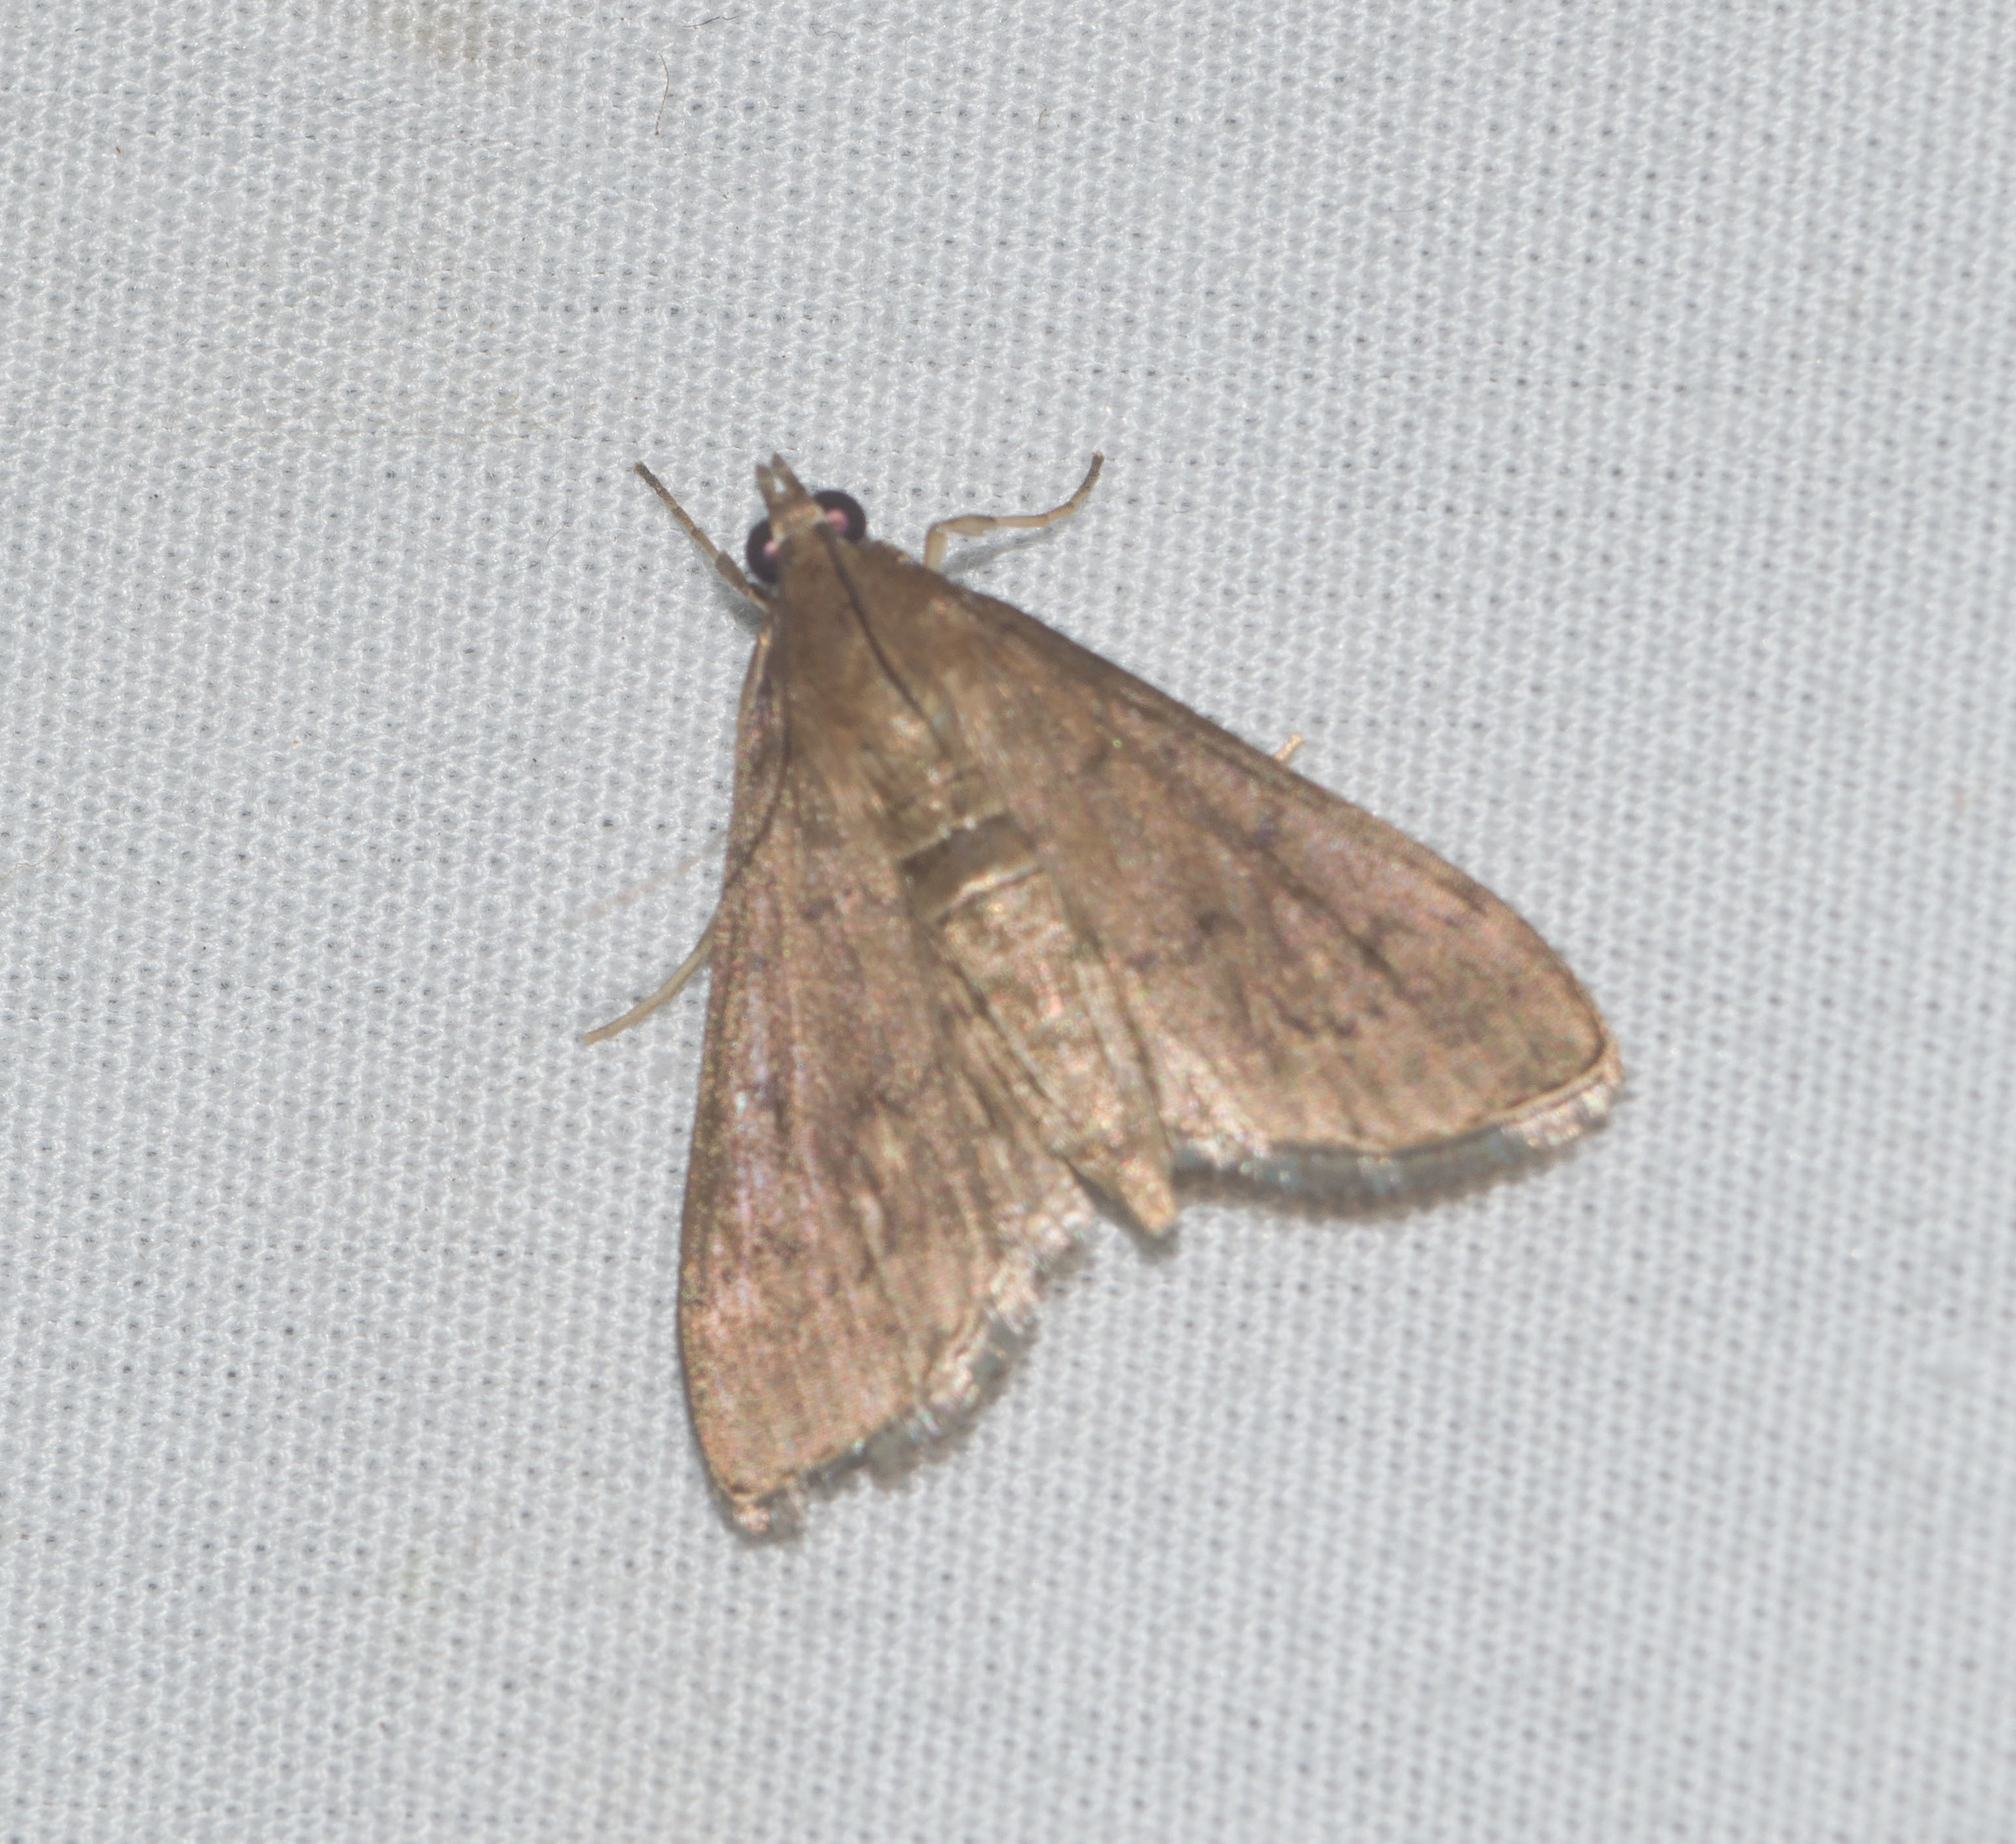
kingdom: Animalia
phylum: Arthropoda
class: Insecta
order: Lepidoptera
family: Crambidae
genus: Herpetogramma
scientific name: Herpetogramma licarsisalis
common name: Grass webworm
